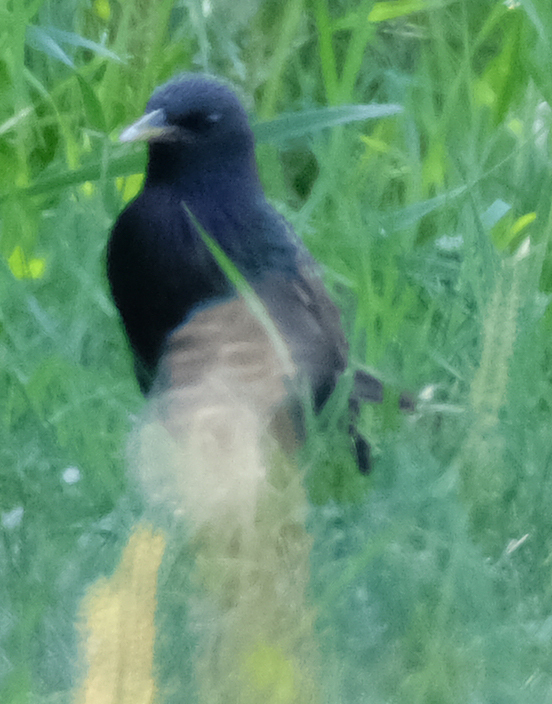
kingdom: Animalia
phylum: Chordata
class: Aves
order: Passeriformes
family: Sturnidae
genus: Sturnus
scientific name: Sturnus vulgaris
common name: Common starling
